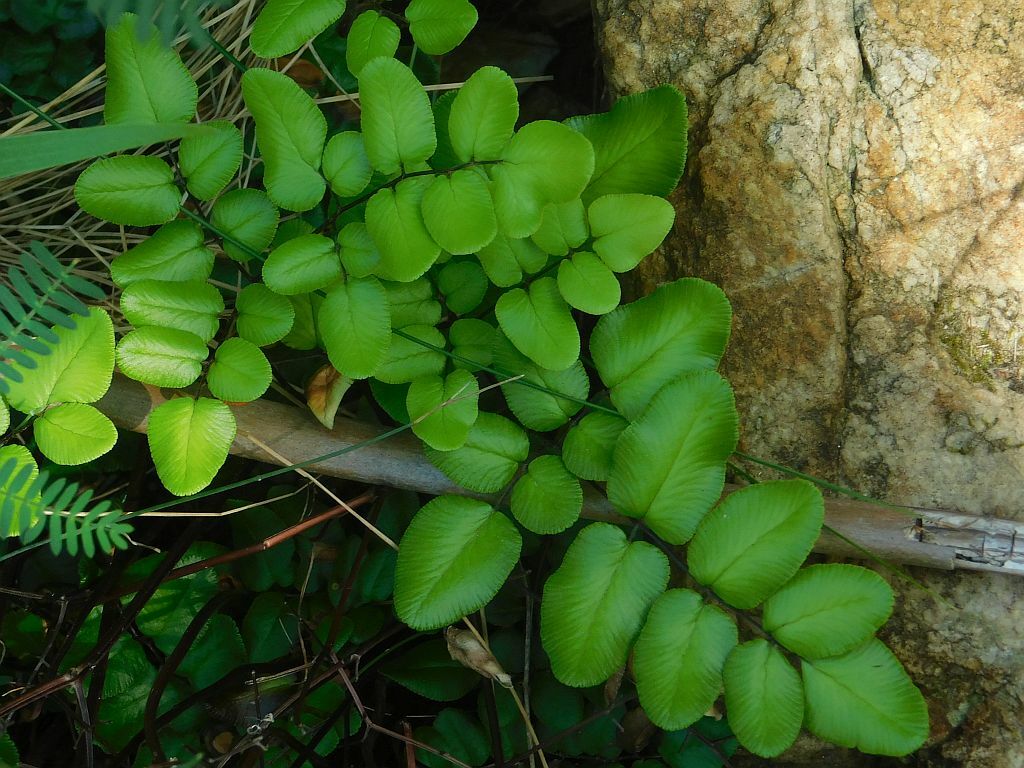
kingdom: Plantae
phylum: Tracheophyta
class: Polypodiopsida
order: Polypodiales
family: Pteridaceae
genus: Pellaea
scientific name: Pellaea pteroides
